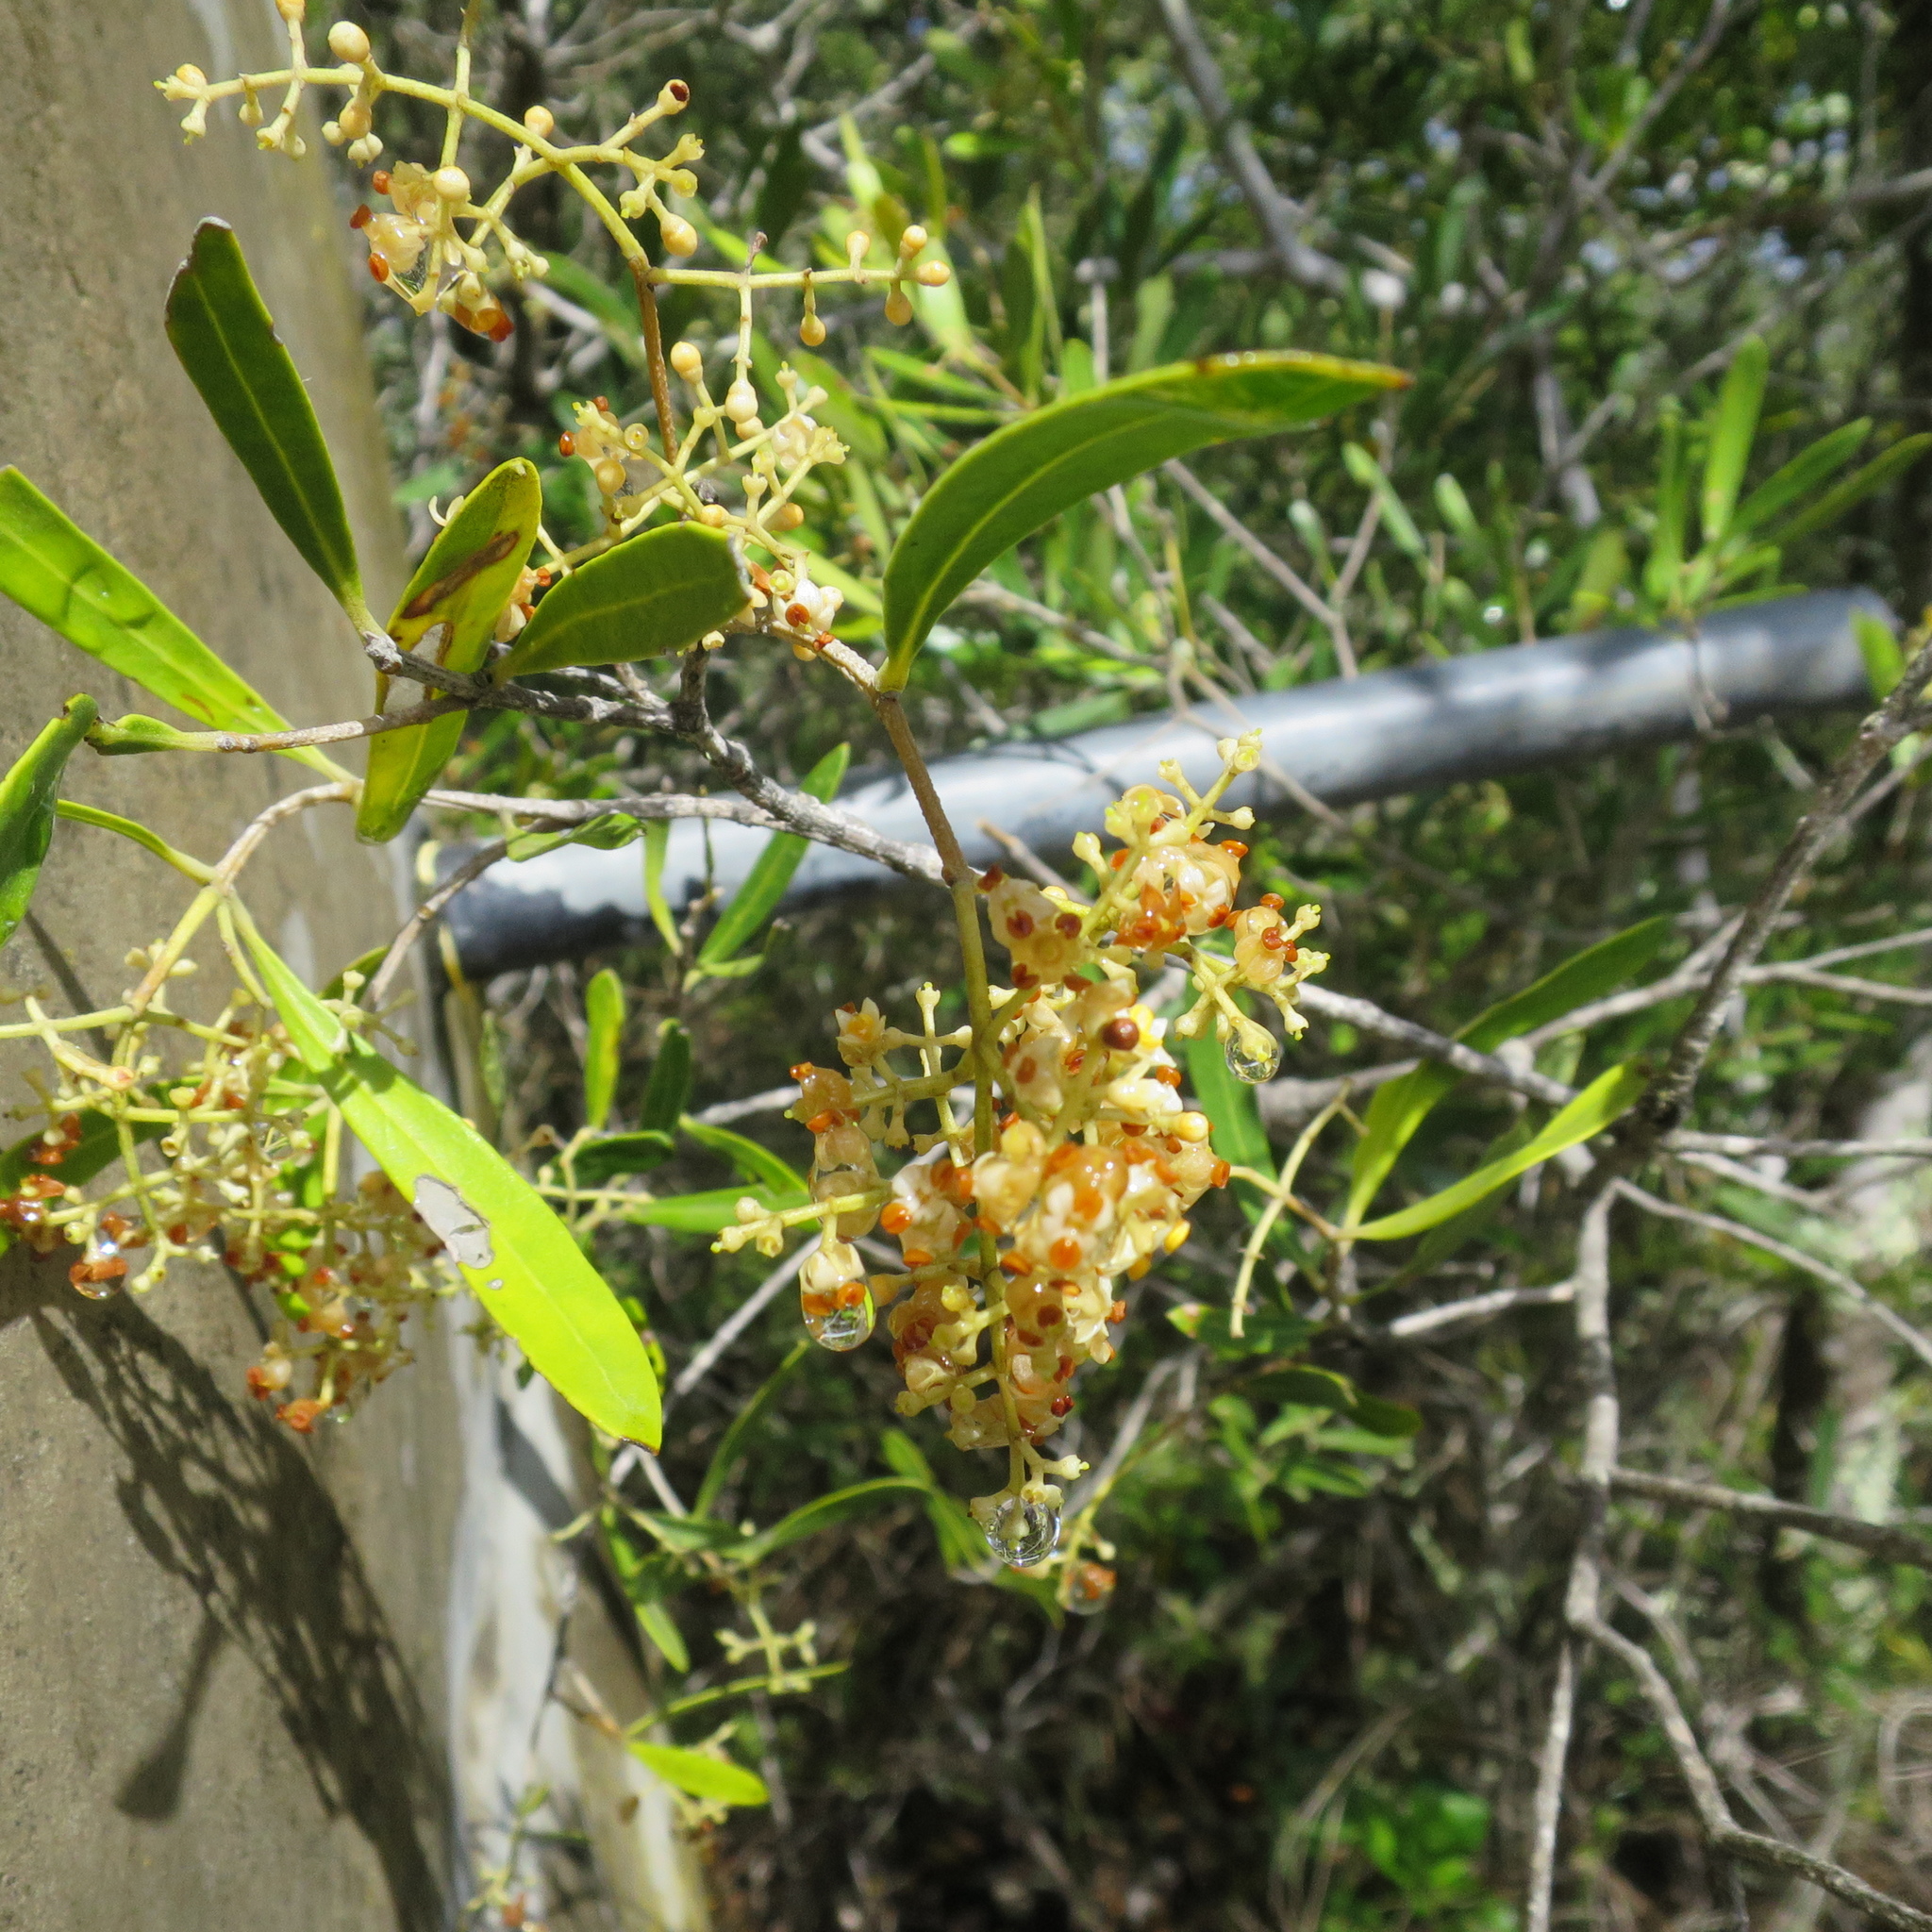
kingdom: Plantae
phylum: Tracheophyta
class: Magnoliopsida
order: Lamiales
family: Oleaceae
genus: Olea
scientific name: Olea exasperata
